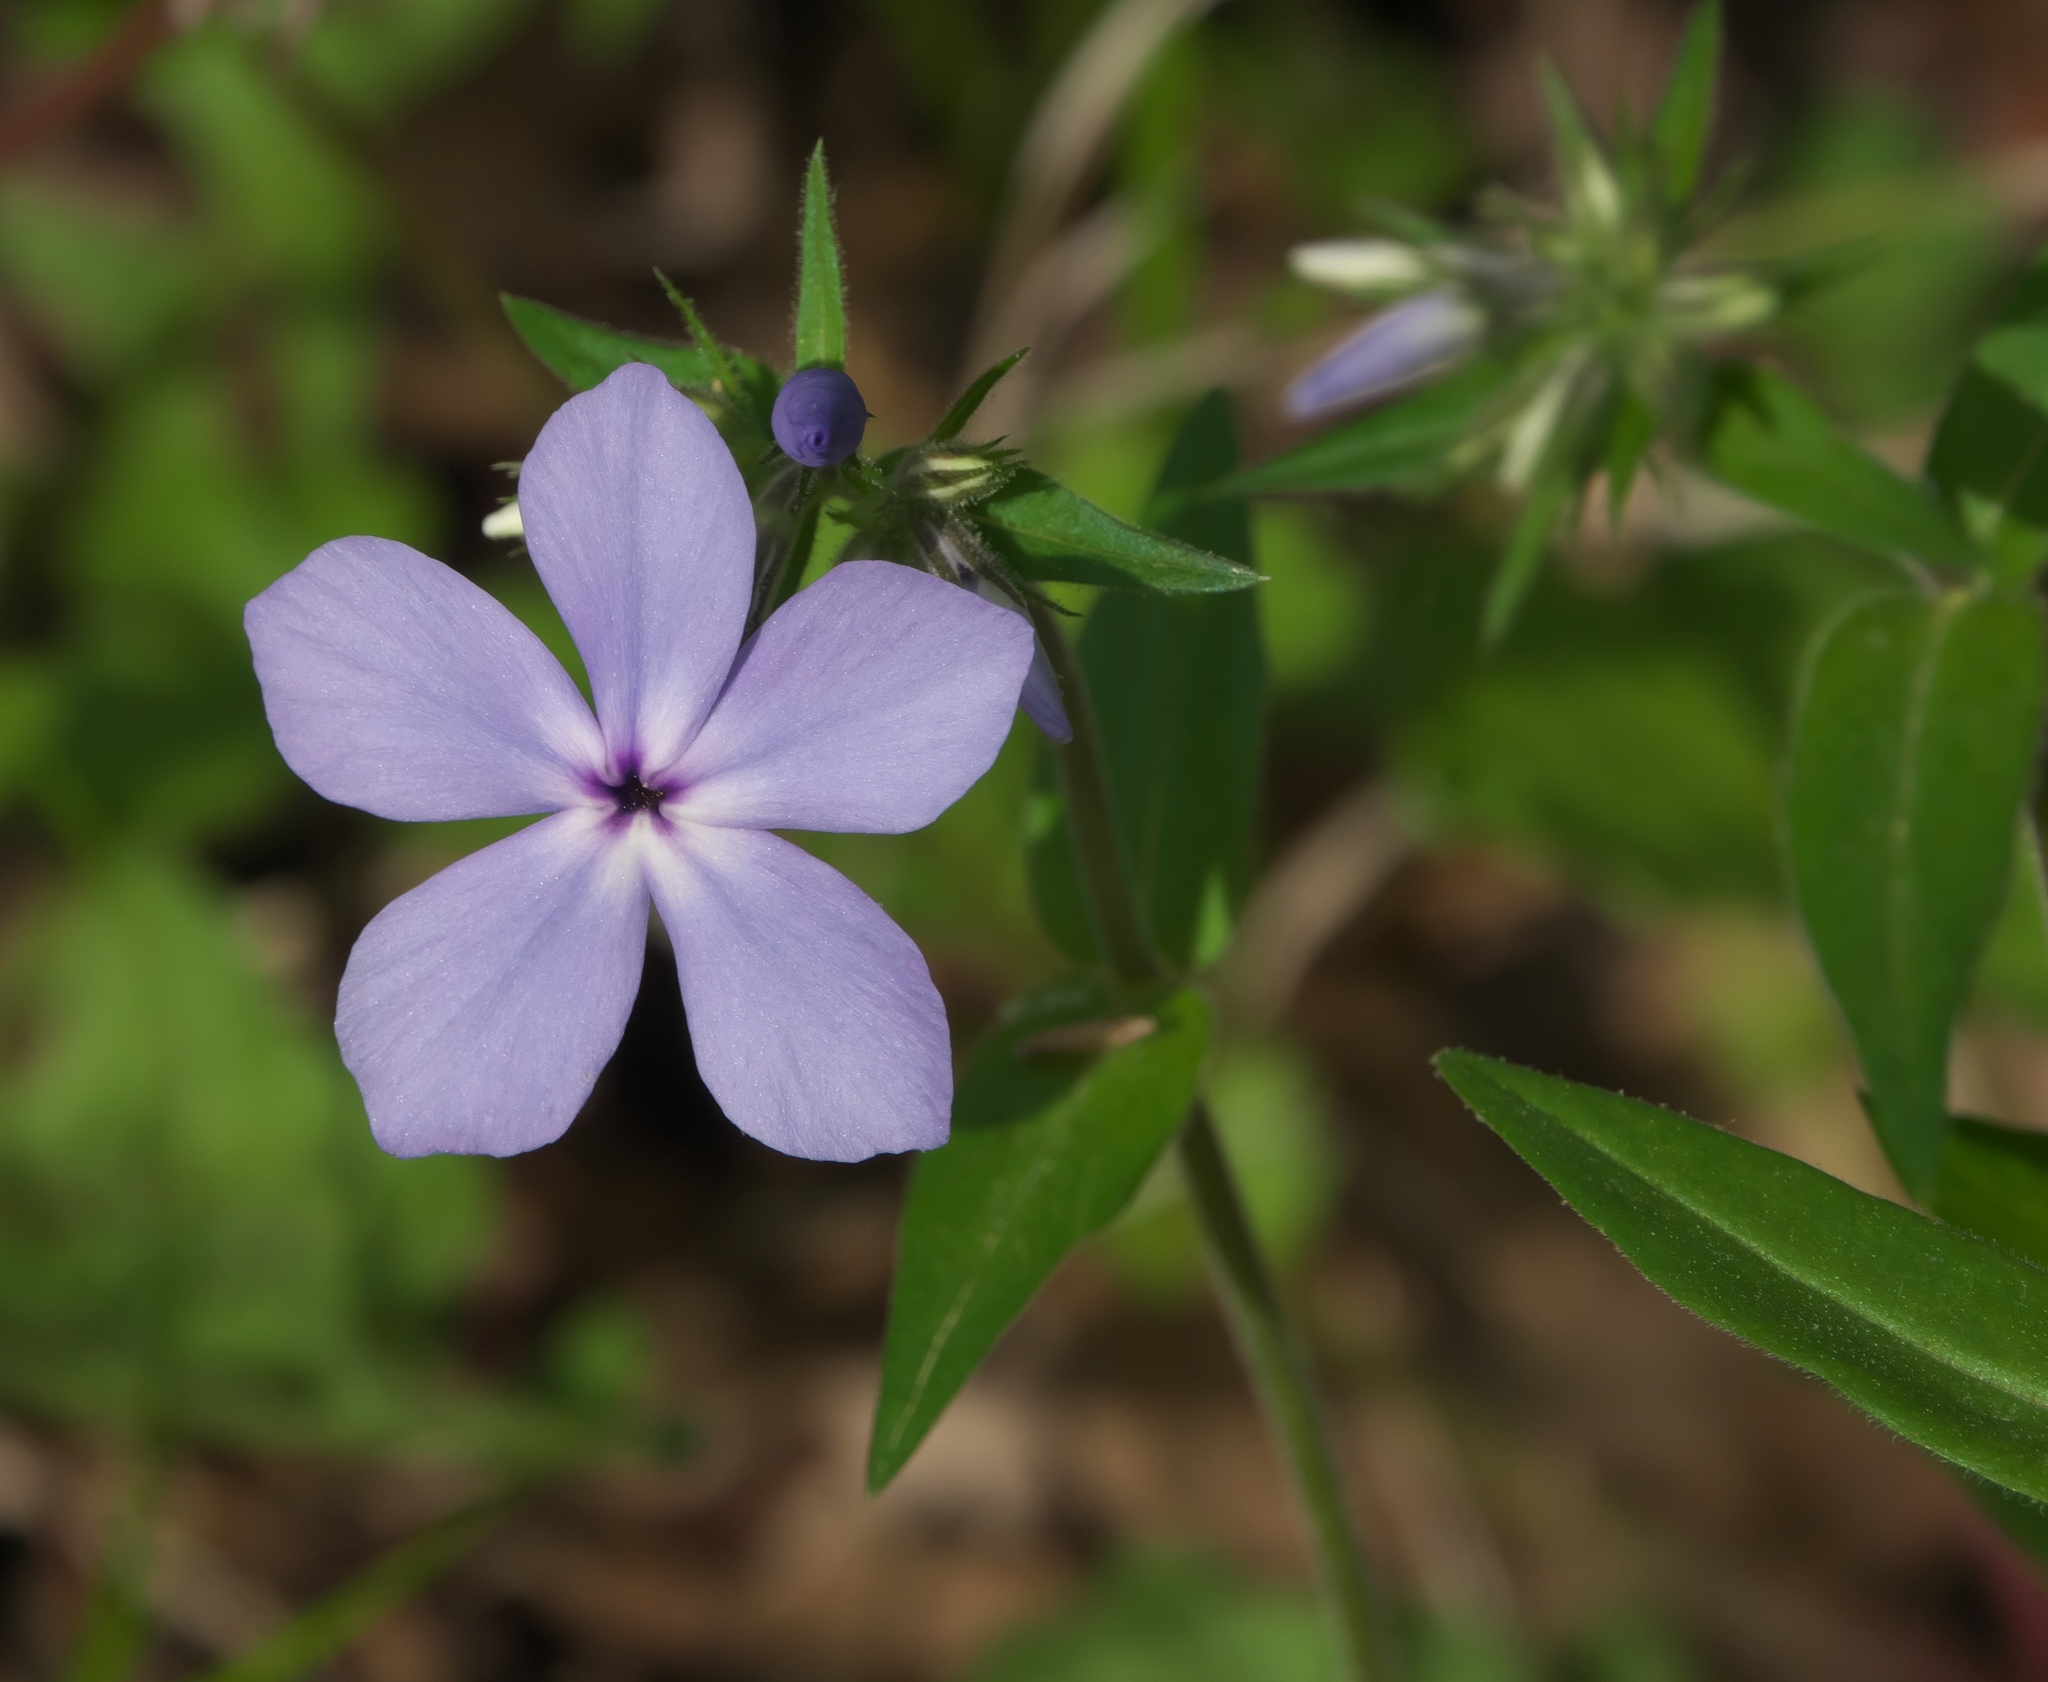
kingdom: Plantae
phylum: Tracheophyta
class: Magnoliopsida
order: Ericales
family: Polemoniaceae
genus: Phlox
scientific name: Phlox divaricata
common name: Blue phlox
